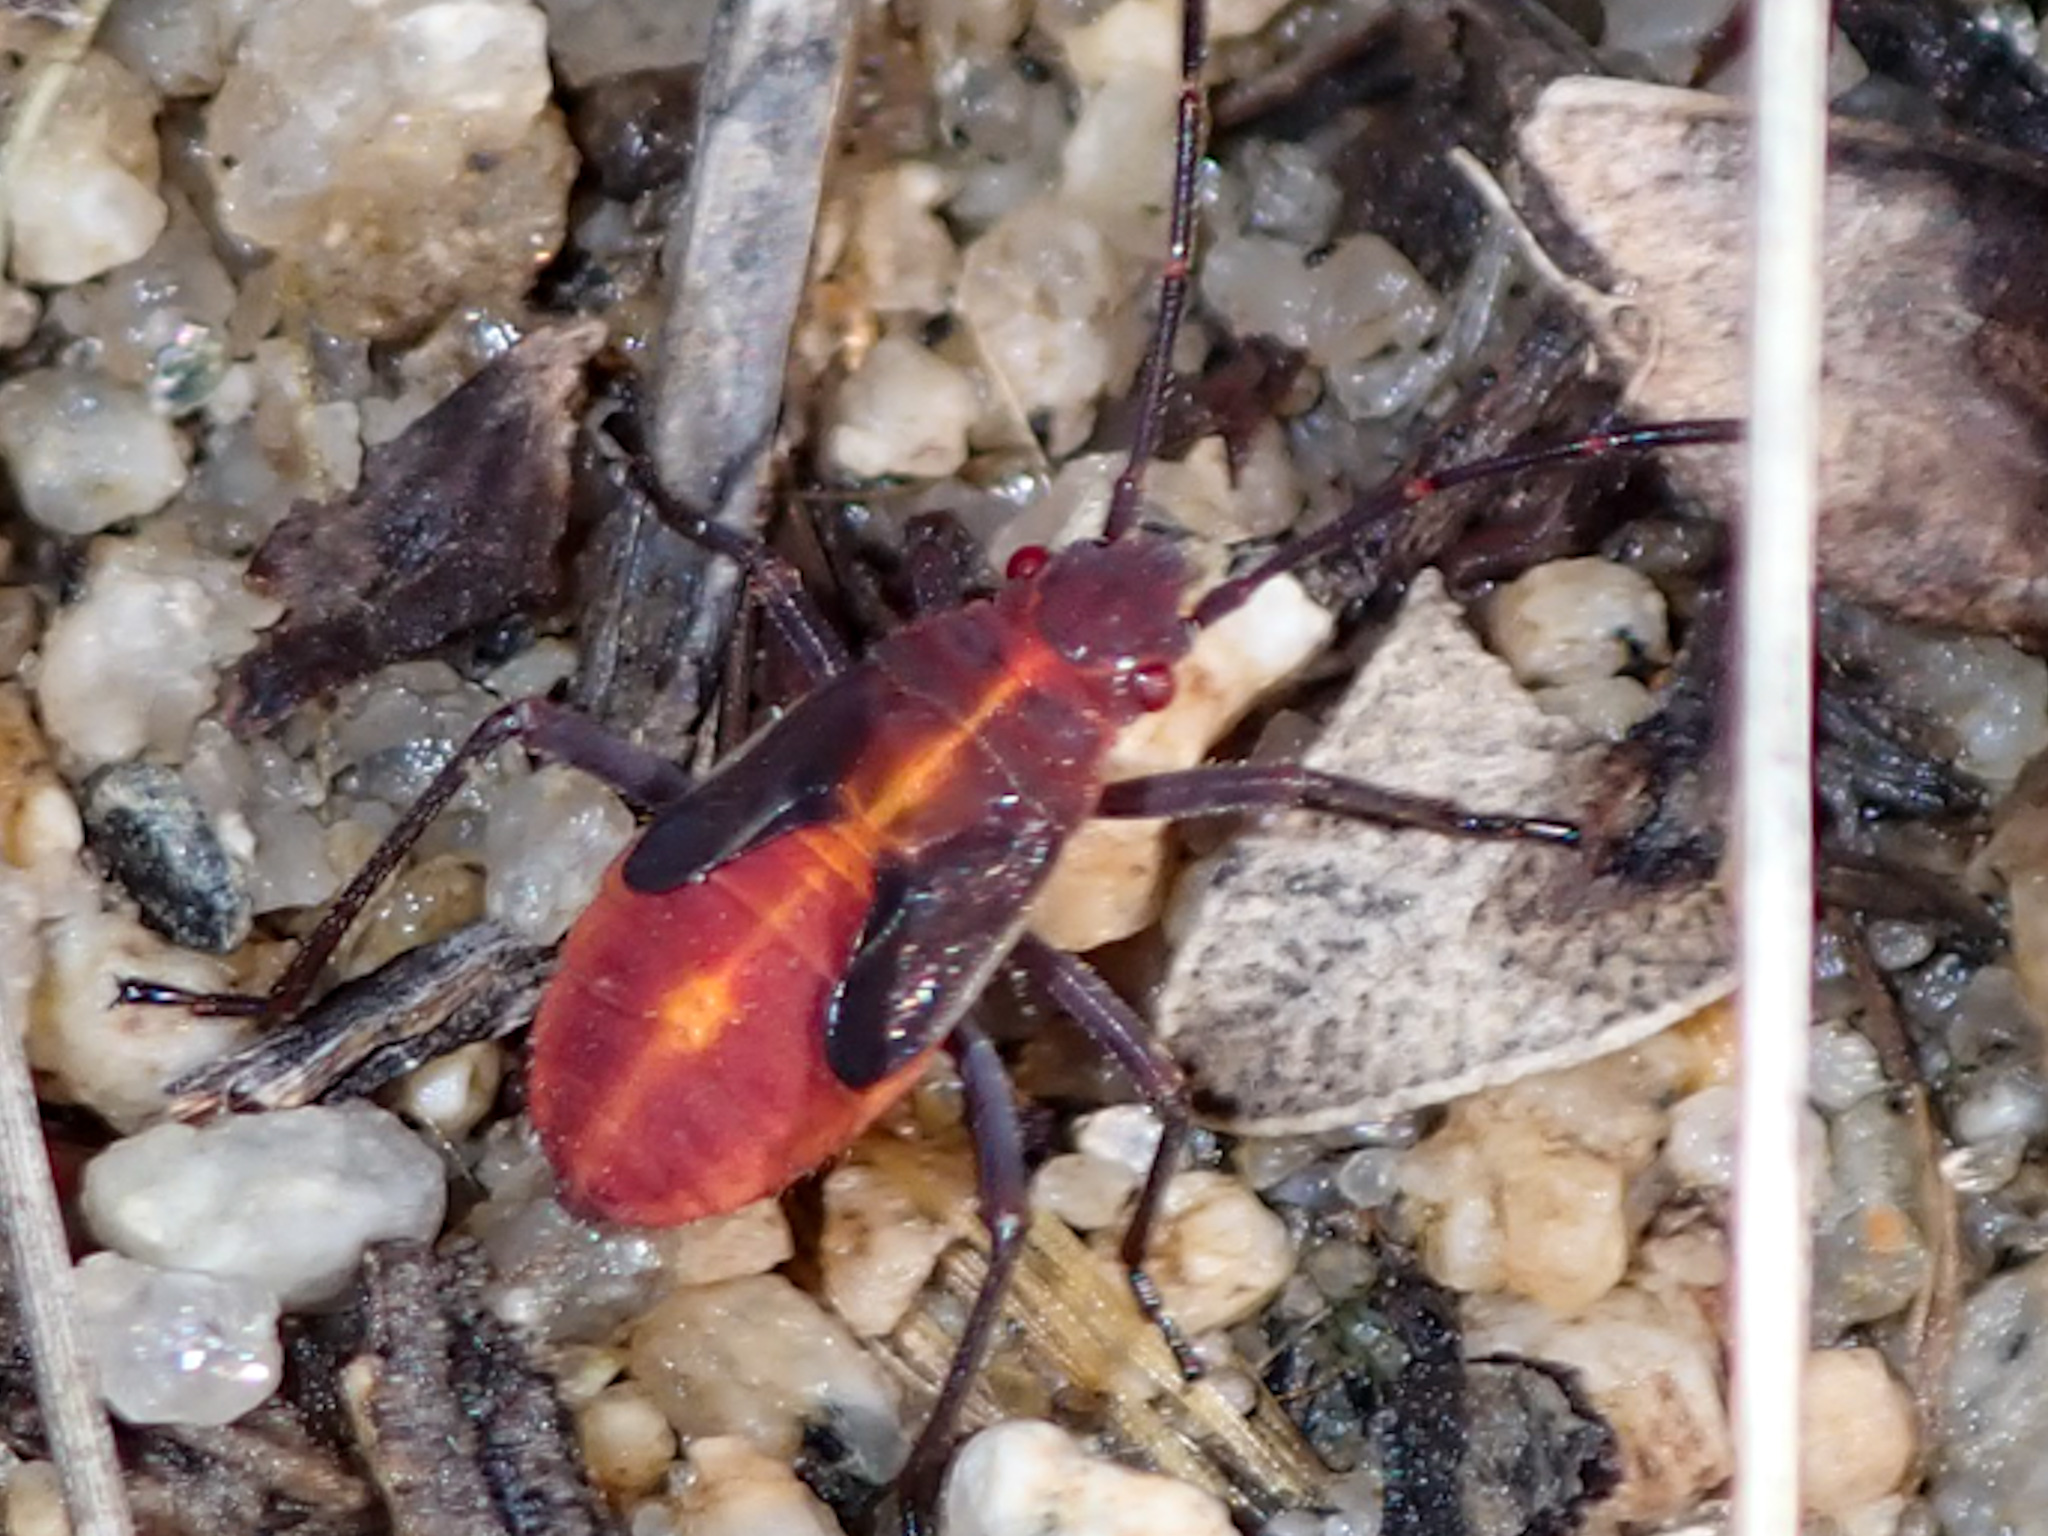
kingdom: Animalia
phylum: Arthropoda
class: Insecta
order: Hemiptera
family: Rhopalidae
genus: Boisea
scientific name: Boisea trivittata
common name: Boxelder bug
